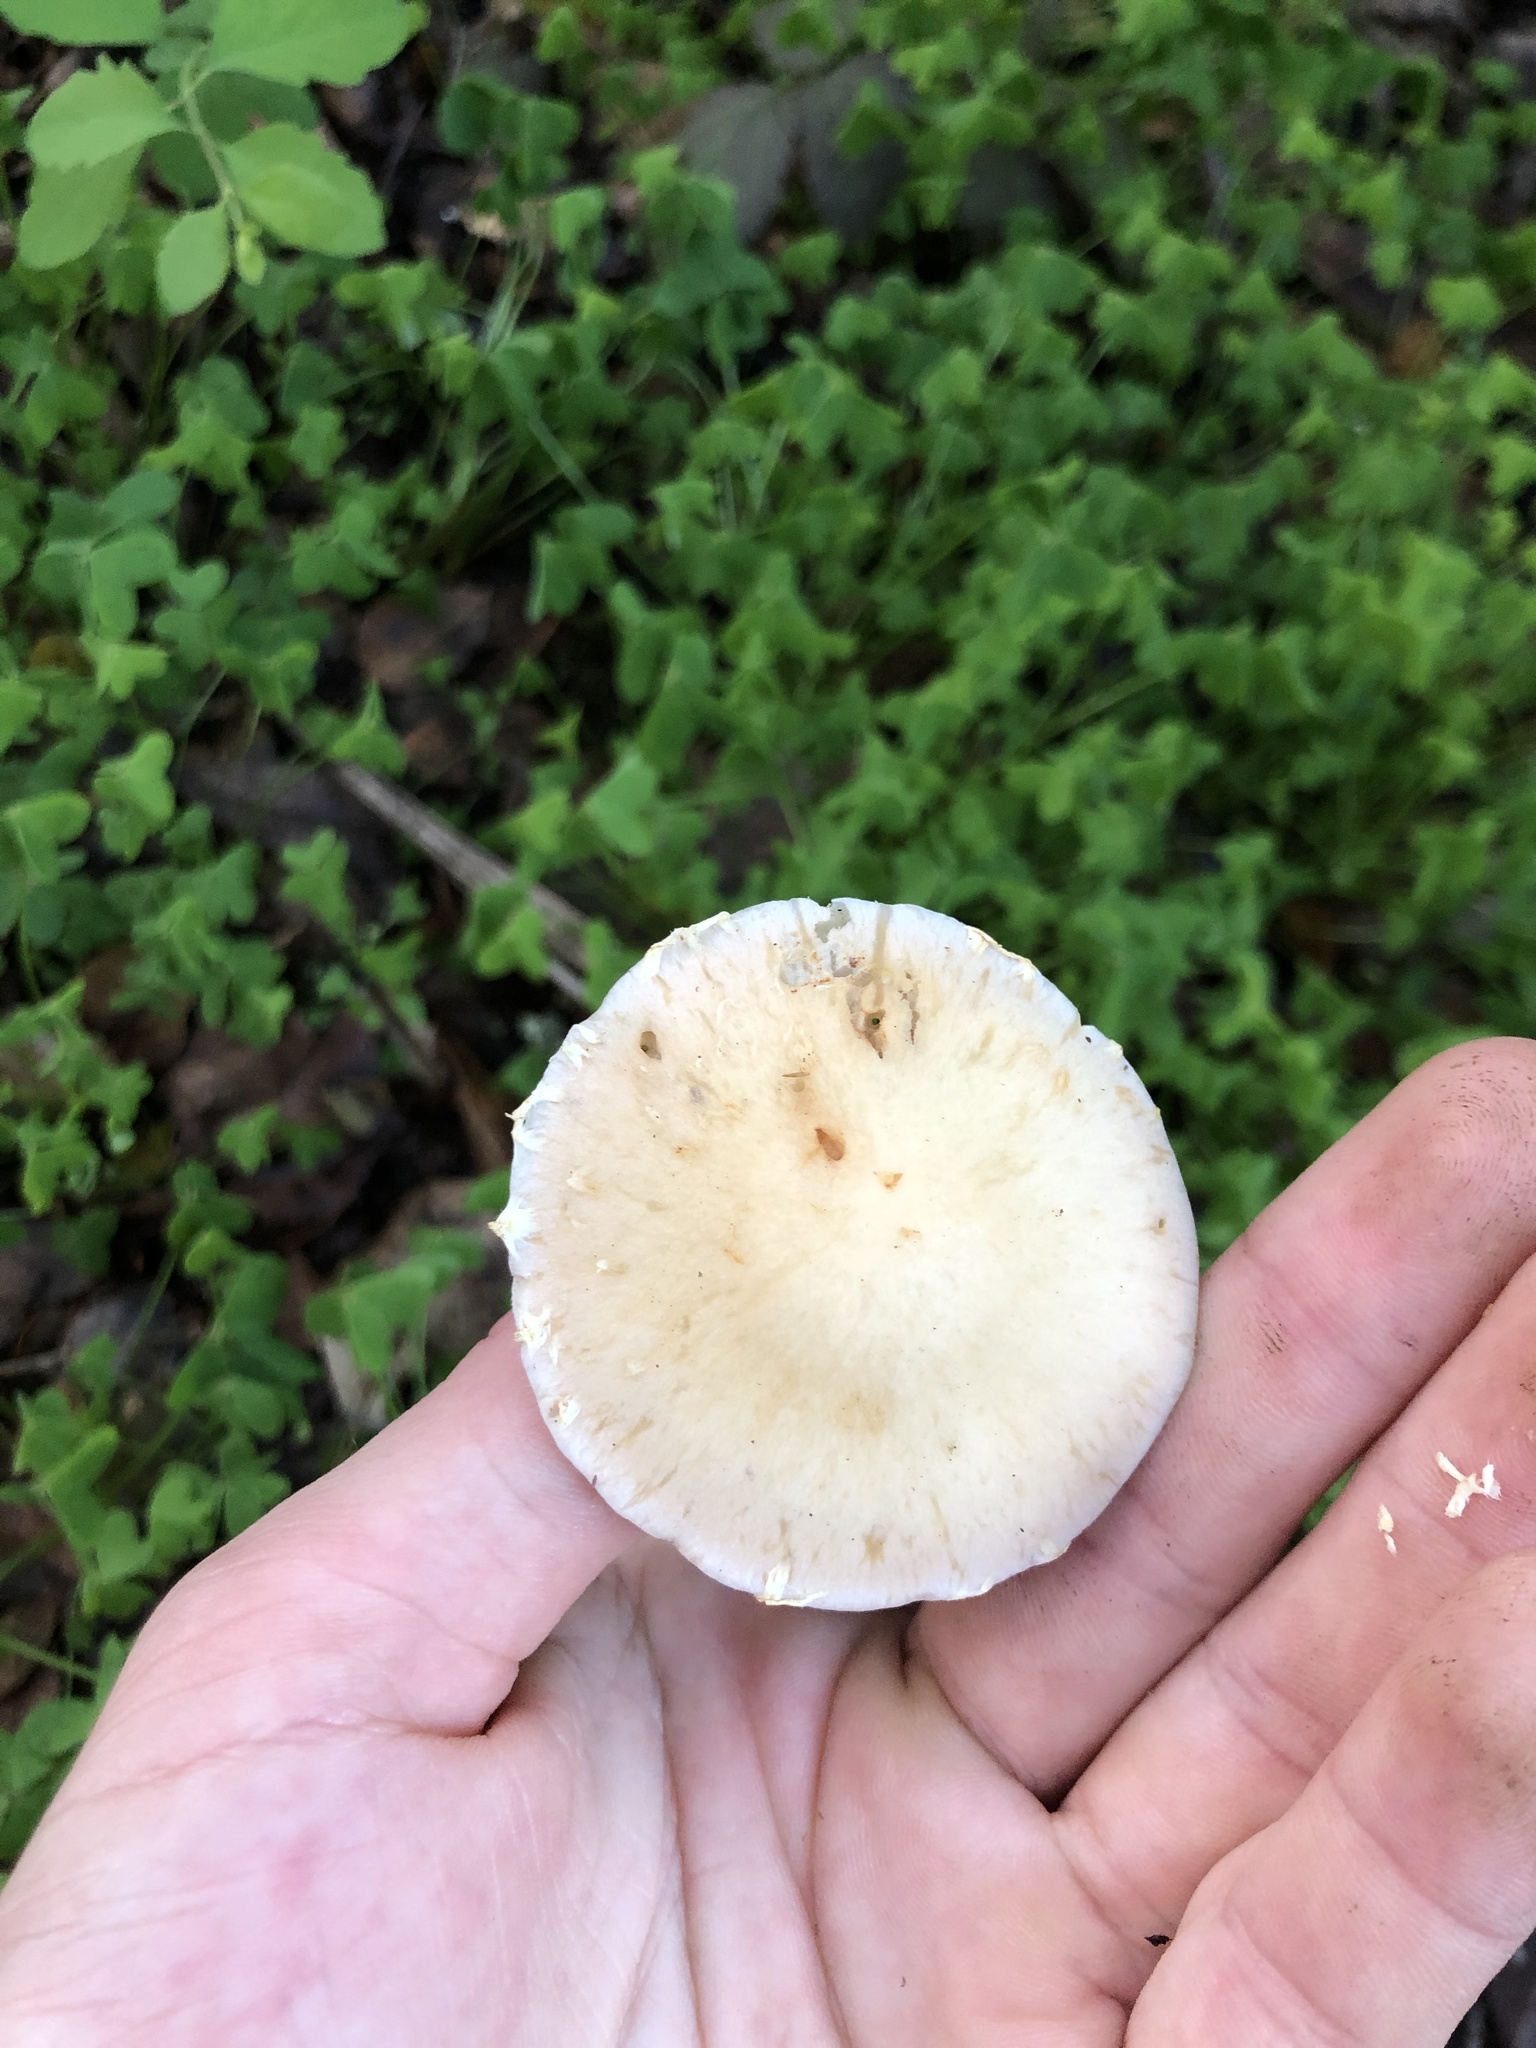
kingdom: Fungi
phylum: Basidiomycota
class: Agaricomycetes
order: Agaricales
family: Strophariaceae
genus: Leratiomyces
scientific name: Leratiomyces percevalii
